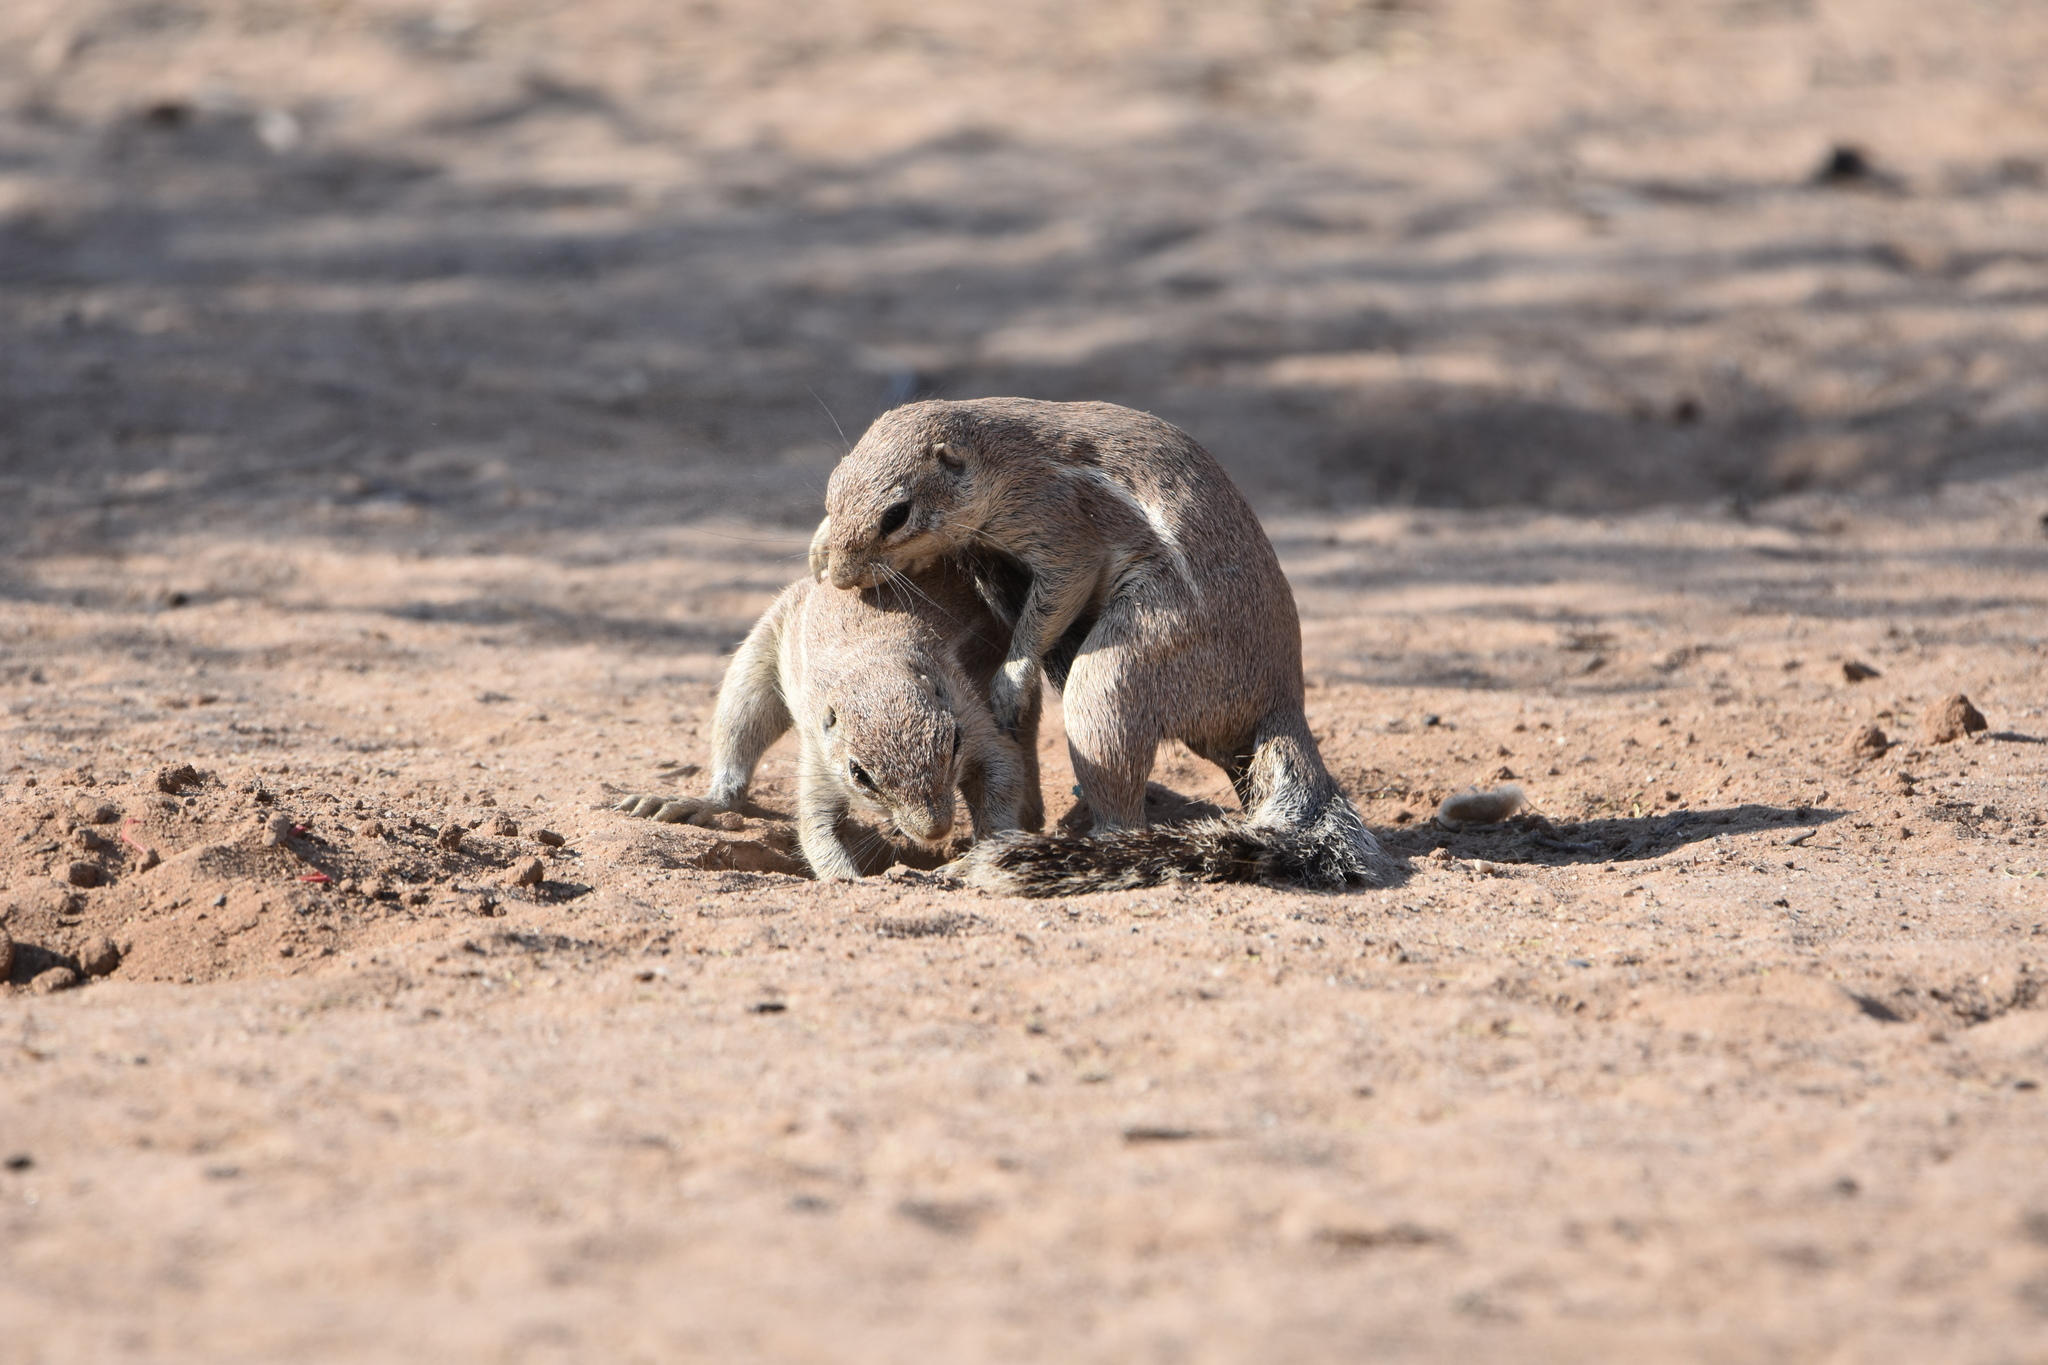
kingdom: Animalia
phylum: Chordata
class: Mammalia
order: Rodentia
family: Sciuridae
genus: Xerus
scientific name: Xerus inauris
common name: South african ground squirrel
